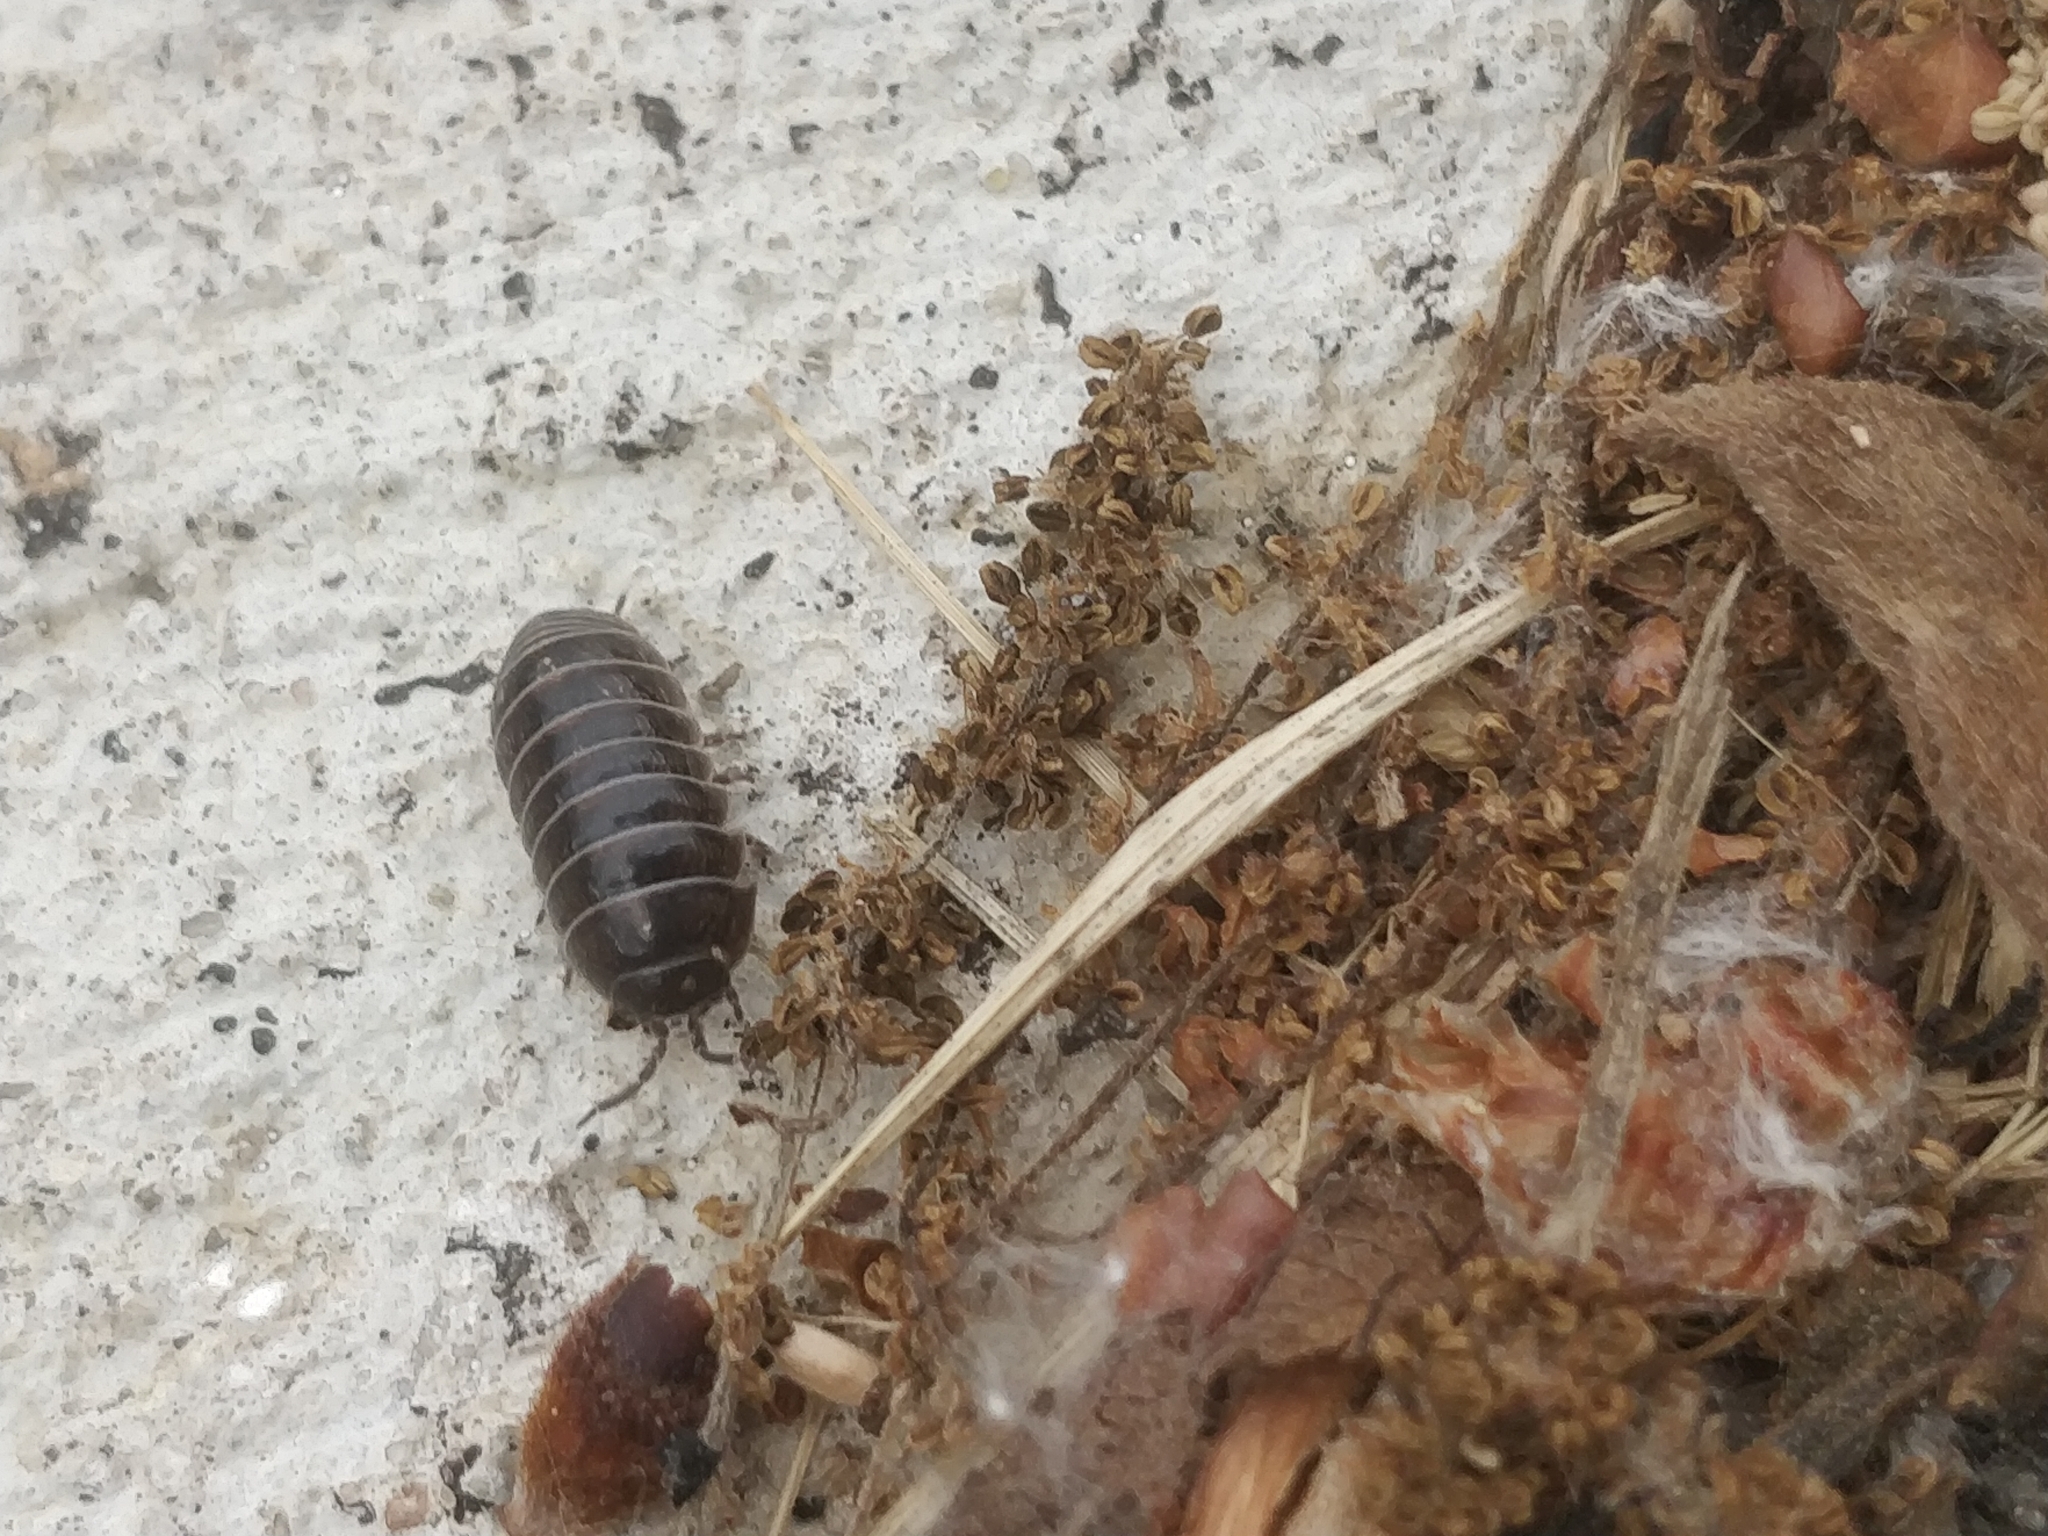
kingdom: Animalia
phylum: Arthropoda
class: Malacostraca
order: Isopoda
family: Armadillidiidae
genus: Armadillidium
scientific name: Armadillidium vulgare
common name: Common pill woodlouse
